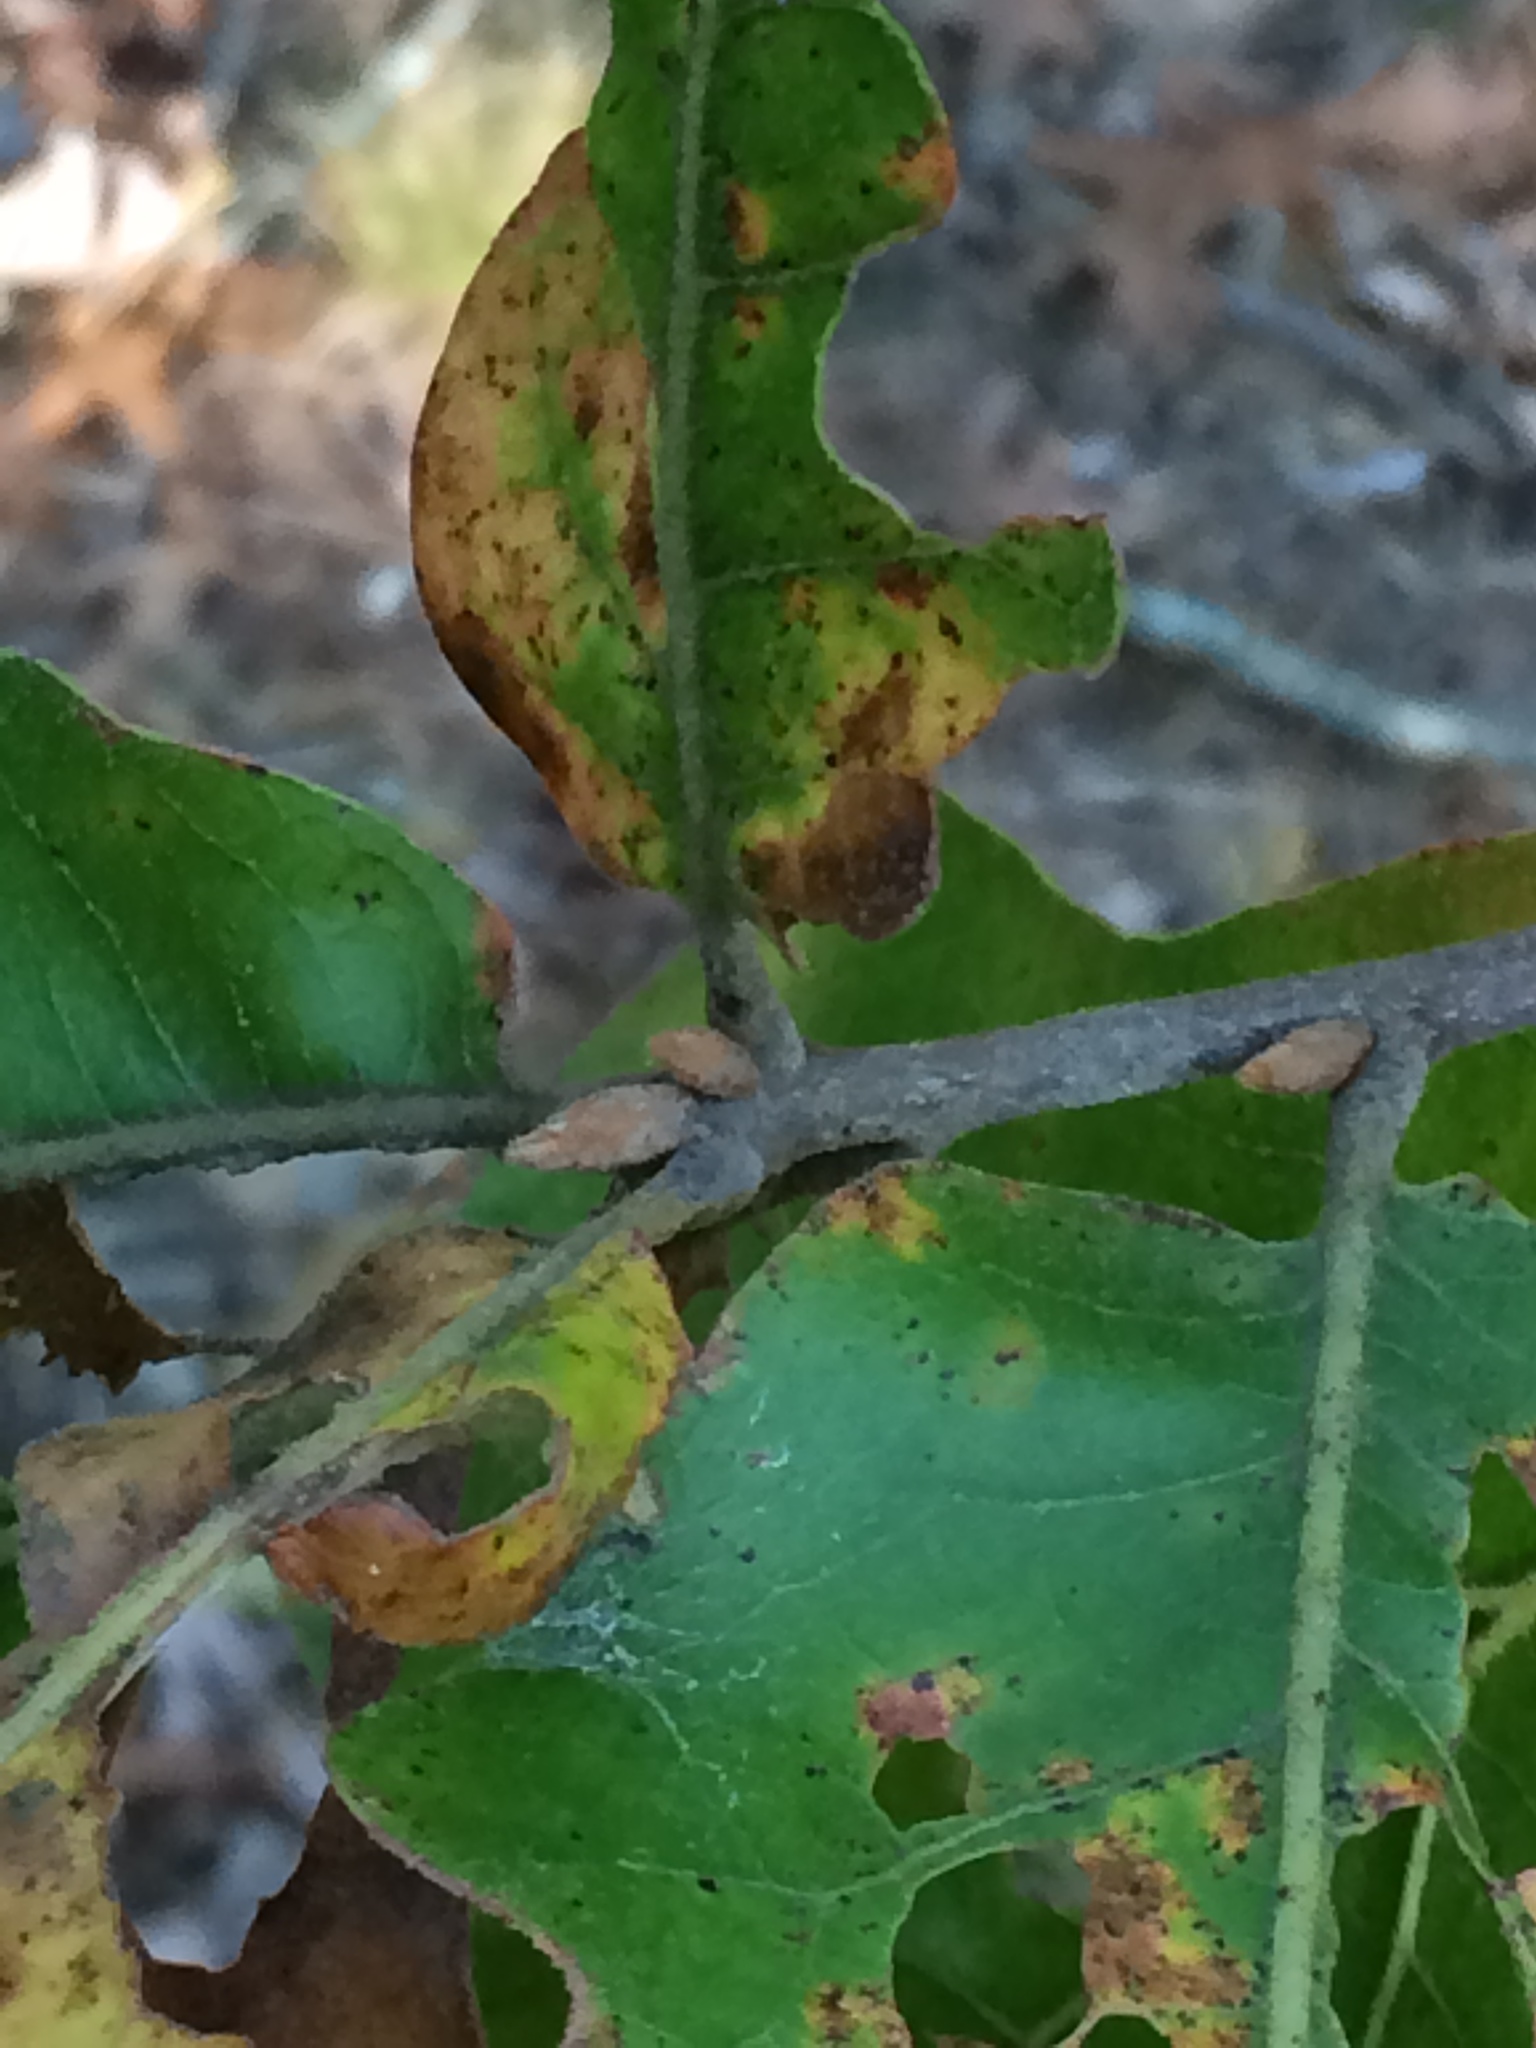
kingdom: Plantae
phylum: Tracheophyta
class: Magnoliopsida
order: Fagales
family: Fagaceae
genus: Quercus
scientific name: Quercus marilandica
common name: Blackjack oak
